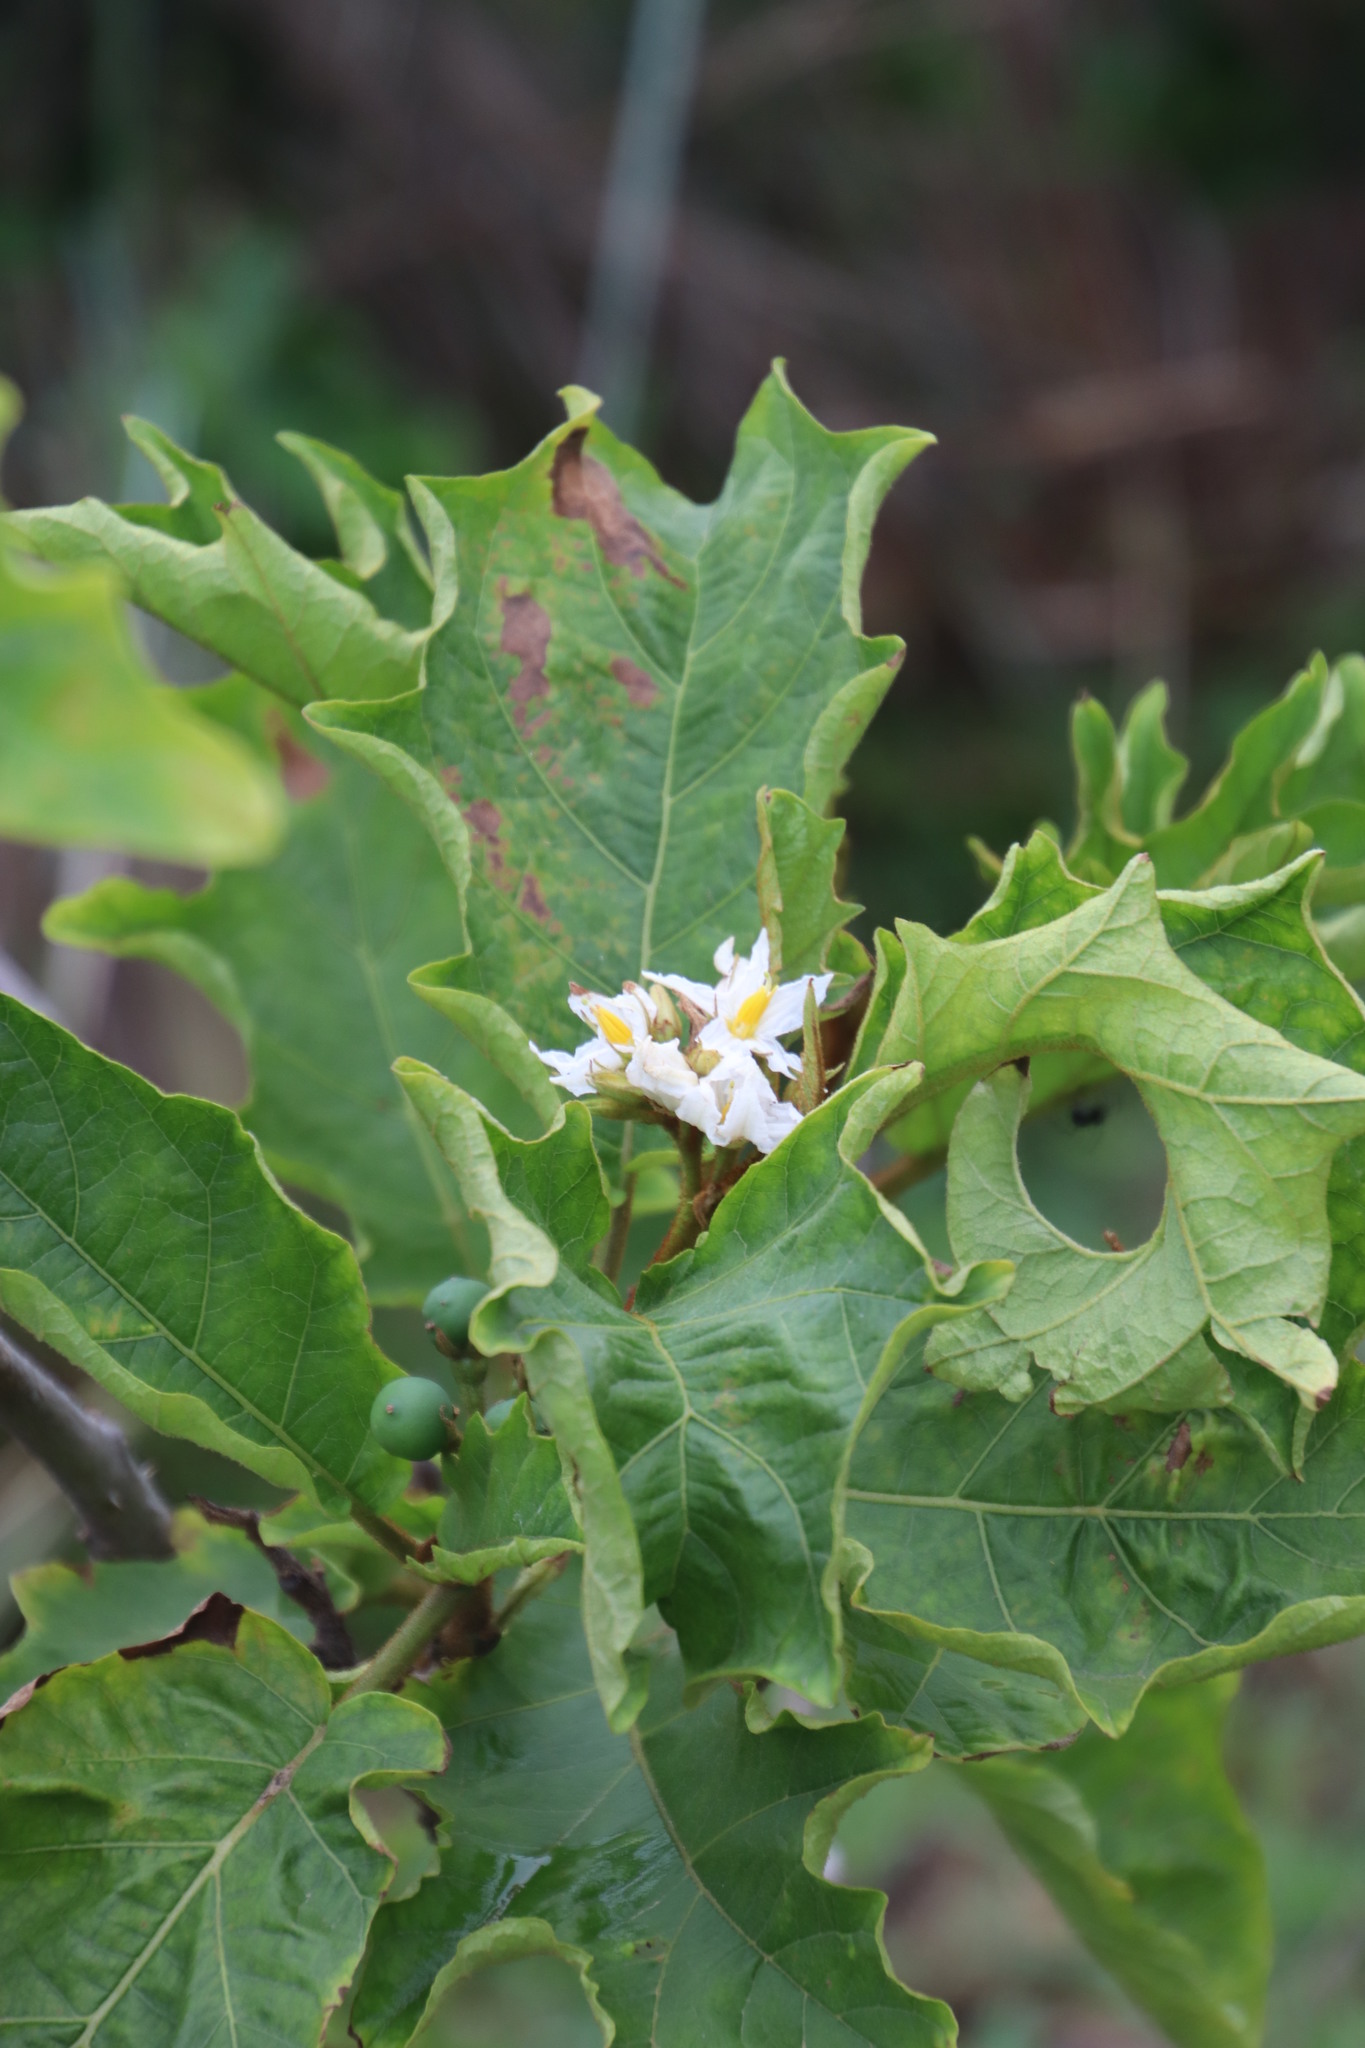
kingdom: Plantae
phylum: Tracheophyta
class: Magnoliopsida
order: Solanales
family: Solanaceae
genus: Solanum
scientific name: Solanum chrysotrichum
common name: Nightshade
